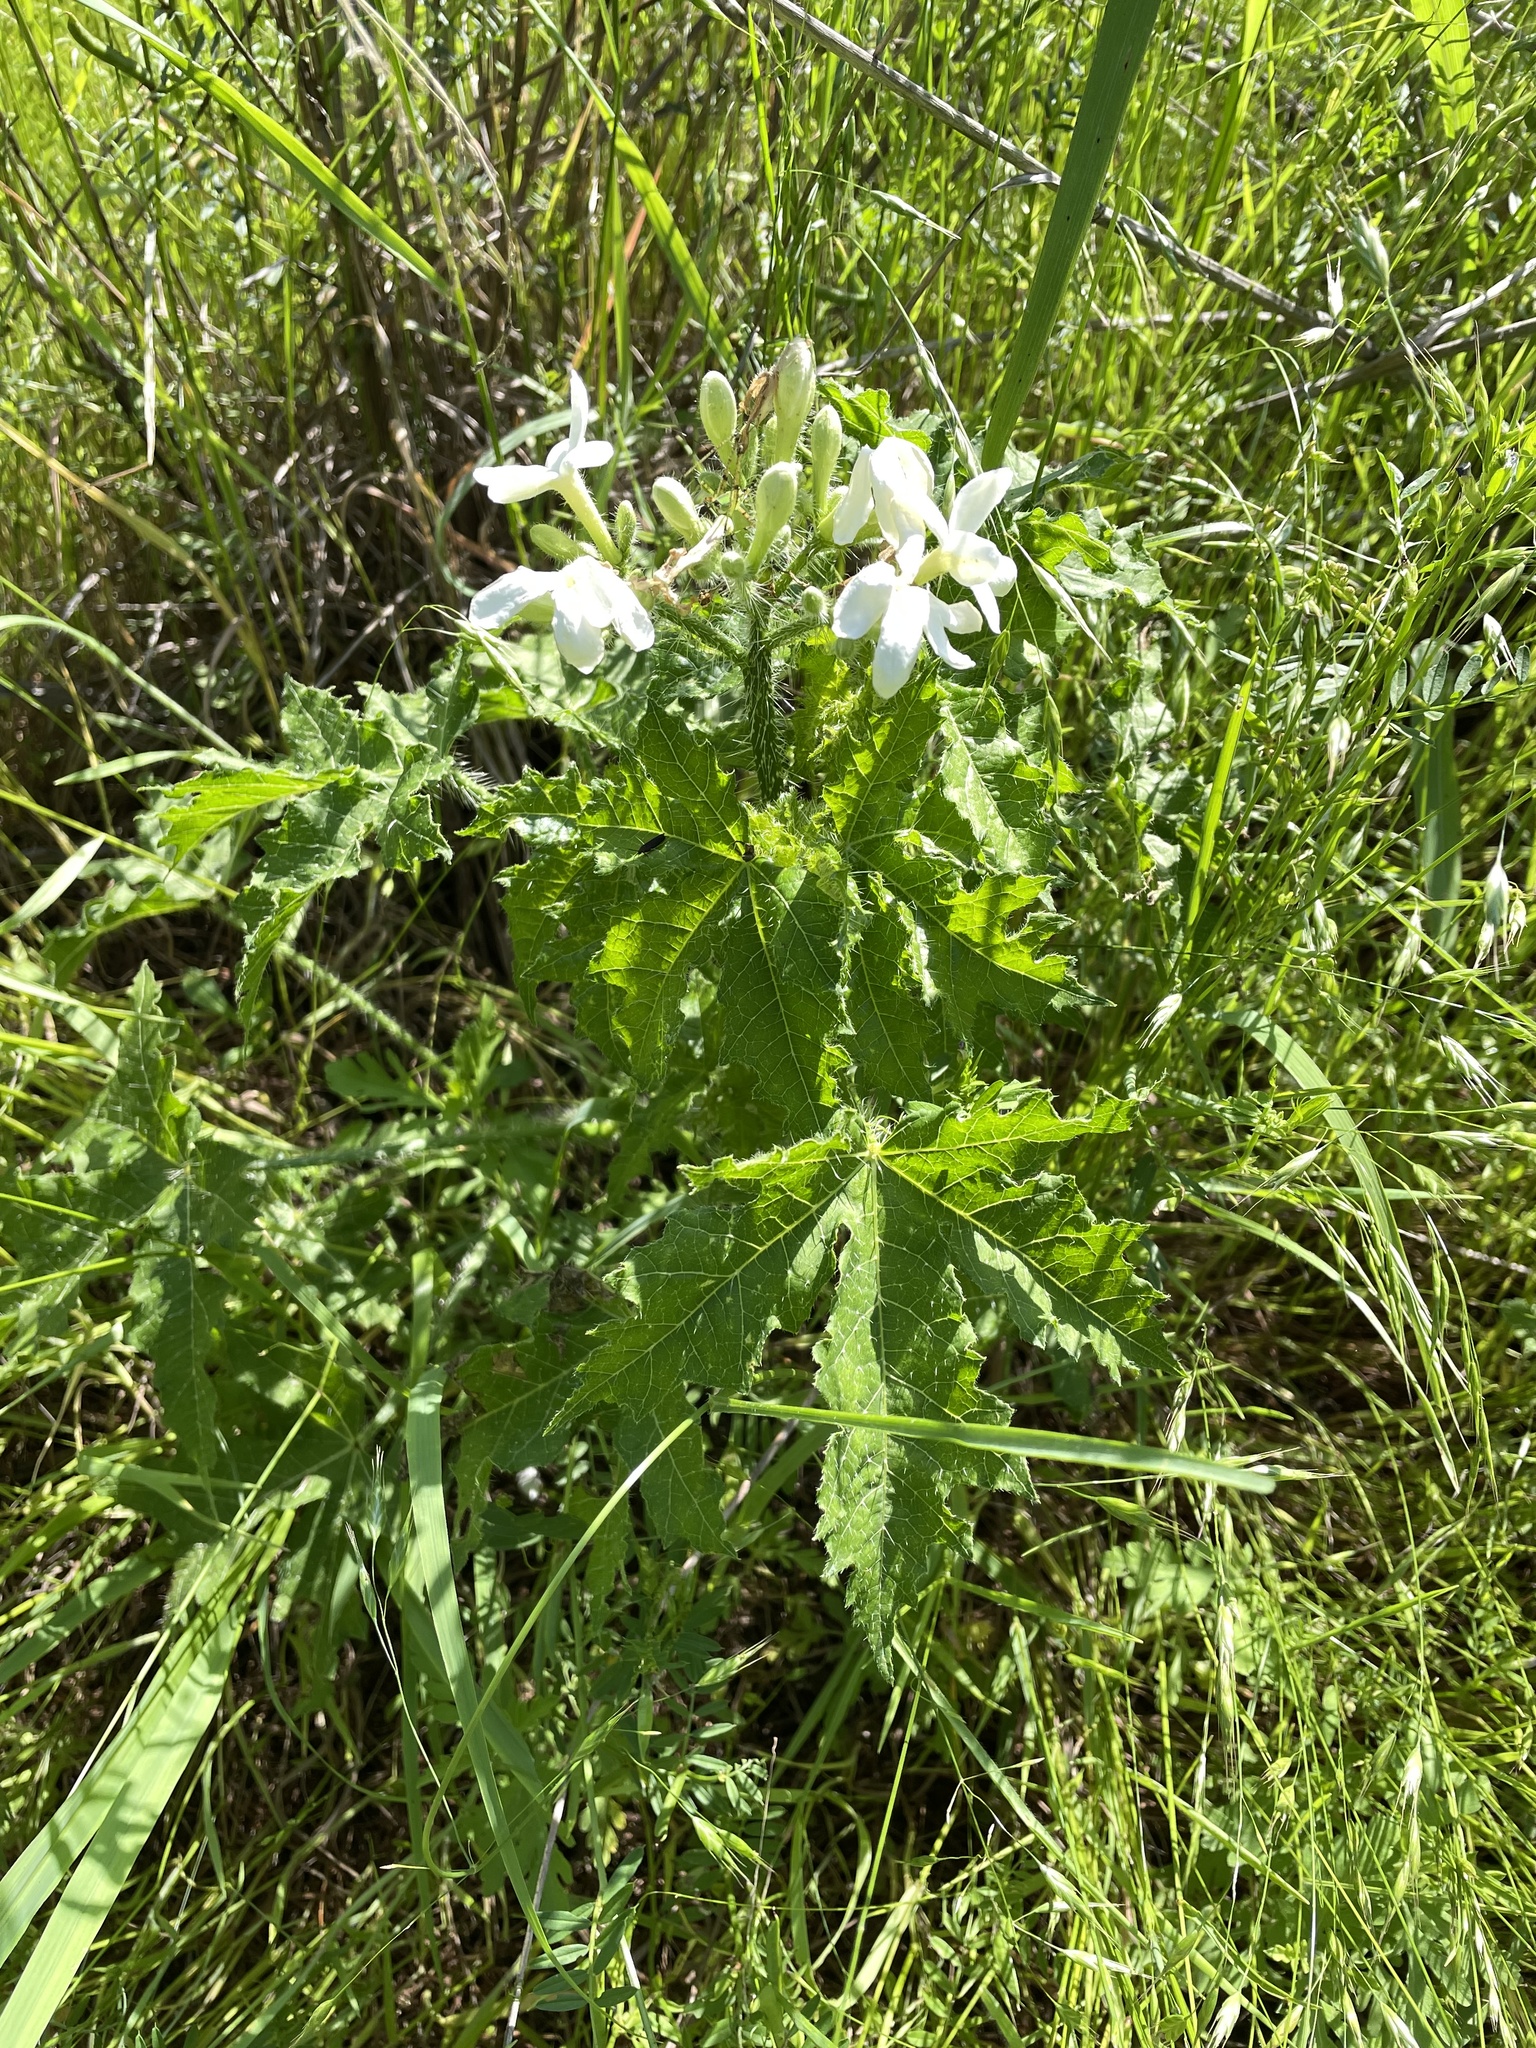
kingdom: Plantae
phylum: Tracheophyta
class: Magnoliopsida
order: Malpighiales
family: Euphorbiaceae
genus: Cnidoscolus
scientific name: Cnidoscolus texanus
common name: Texas bull-nettle
